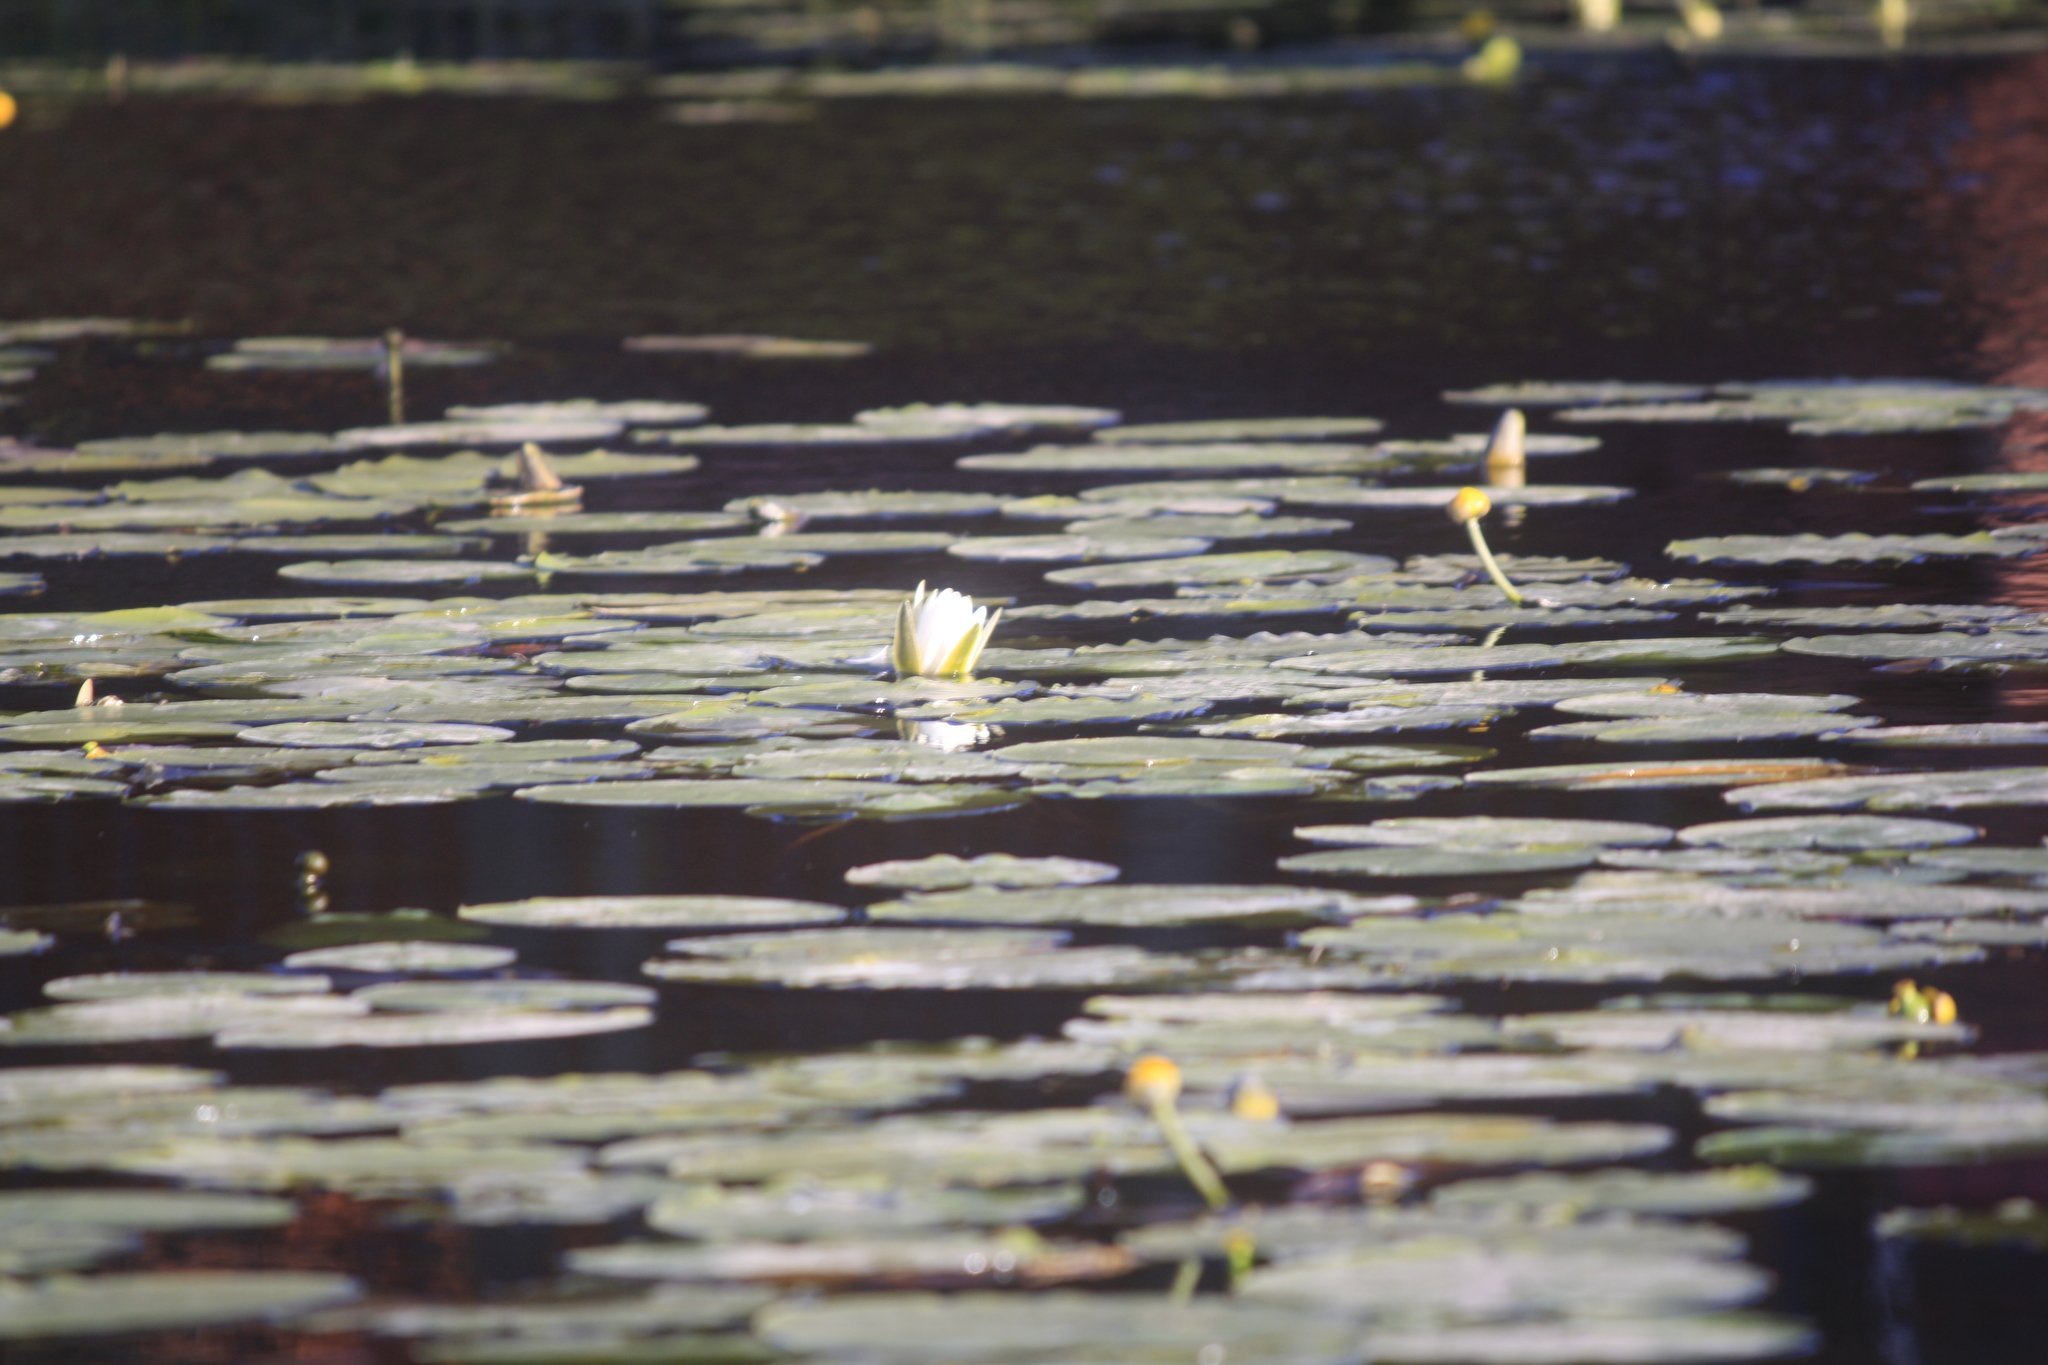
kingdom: Plantae
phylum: Tracheophyta
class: Magnoliopsida
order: Nymphaeales
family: Nymphaeaceae
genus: Nymphaea
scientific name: Nymphaea alba
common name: White water-lily
